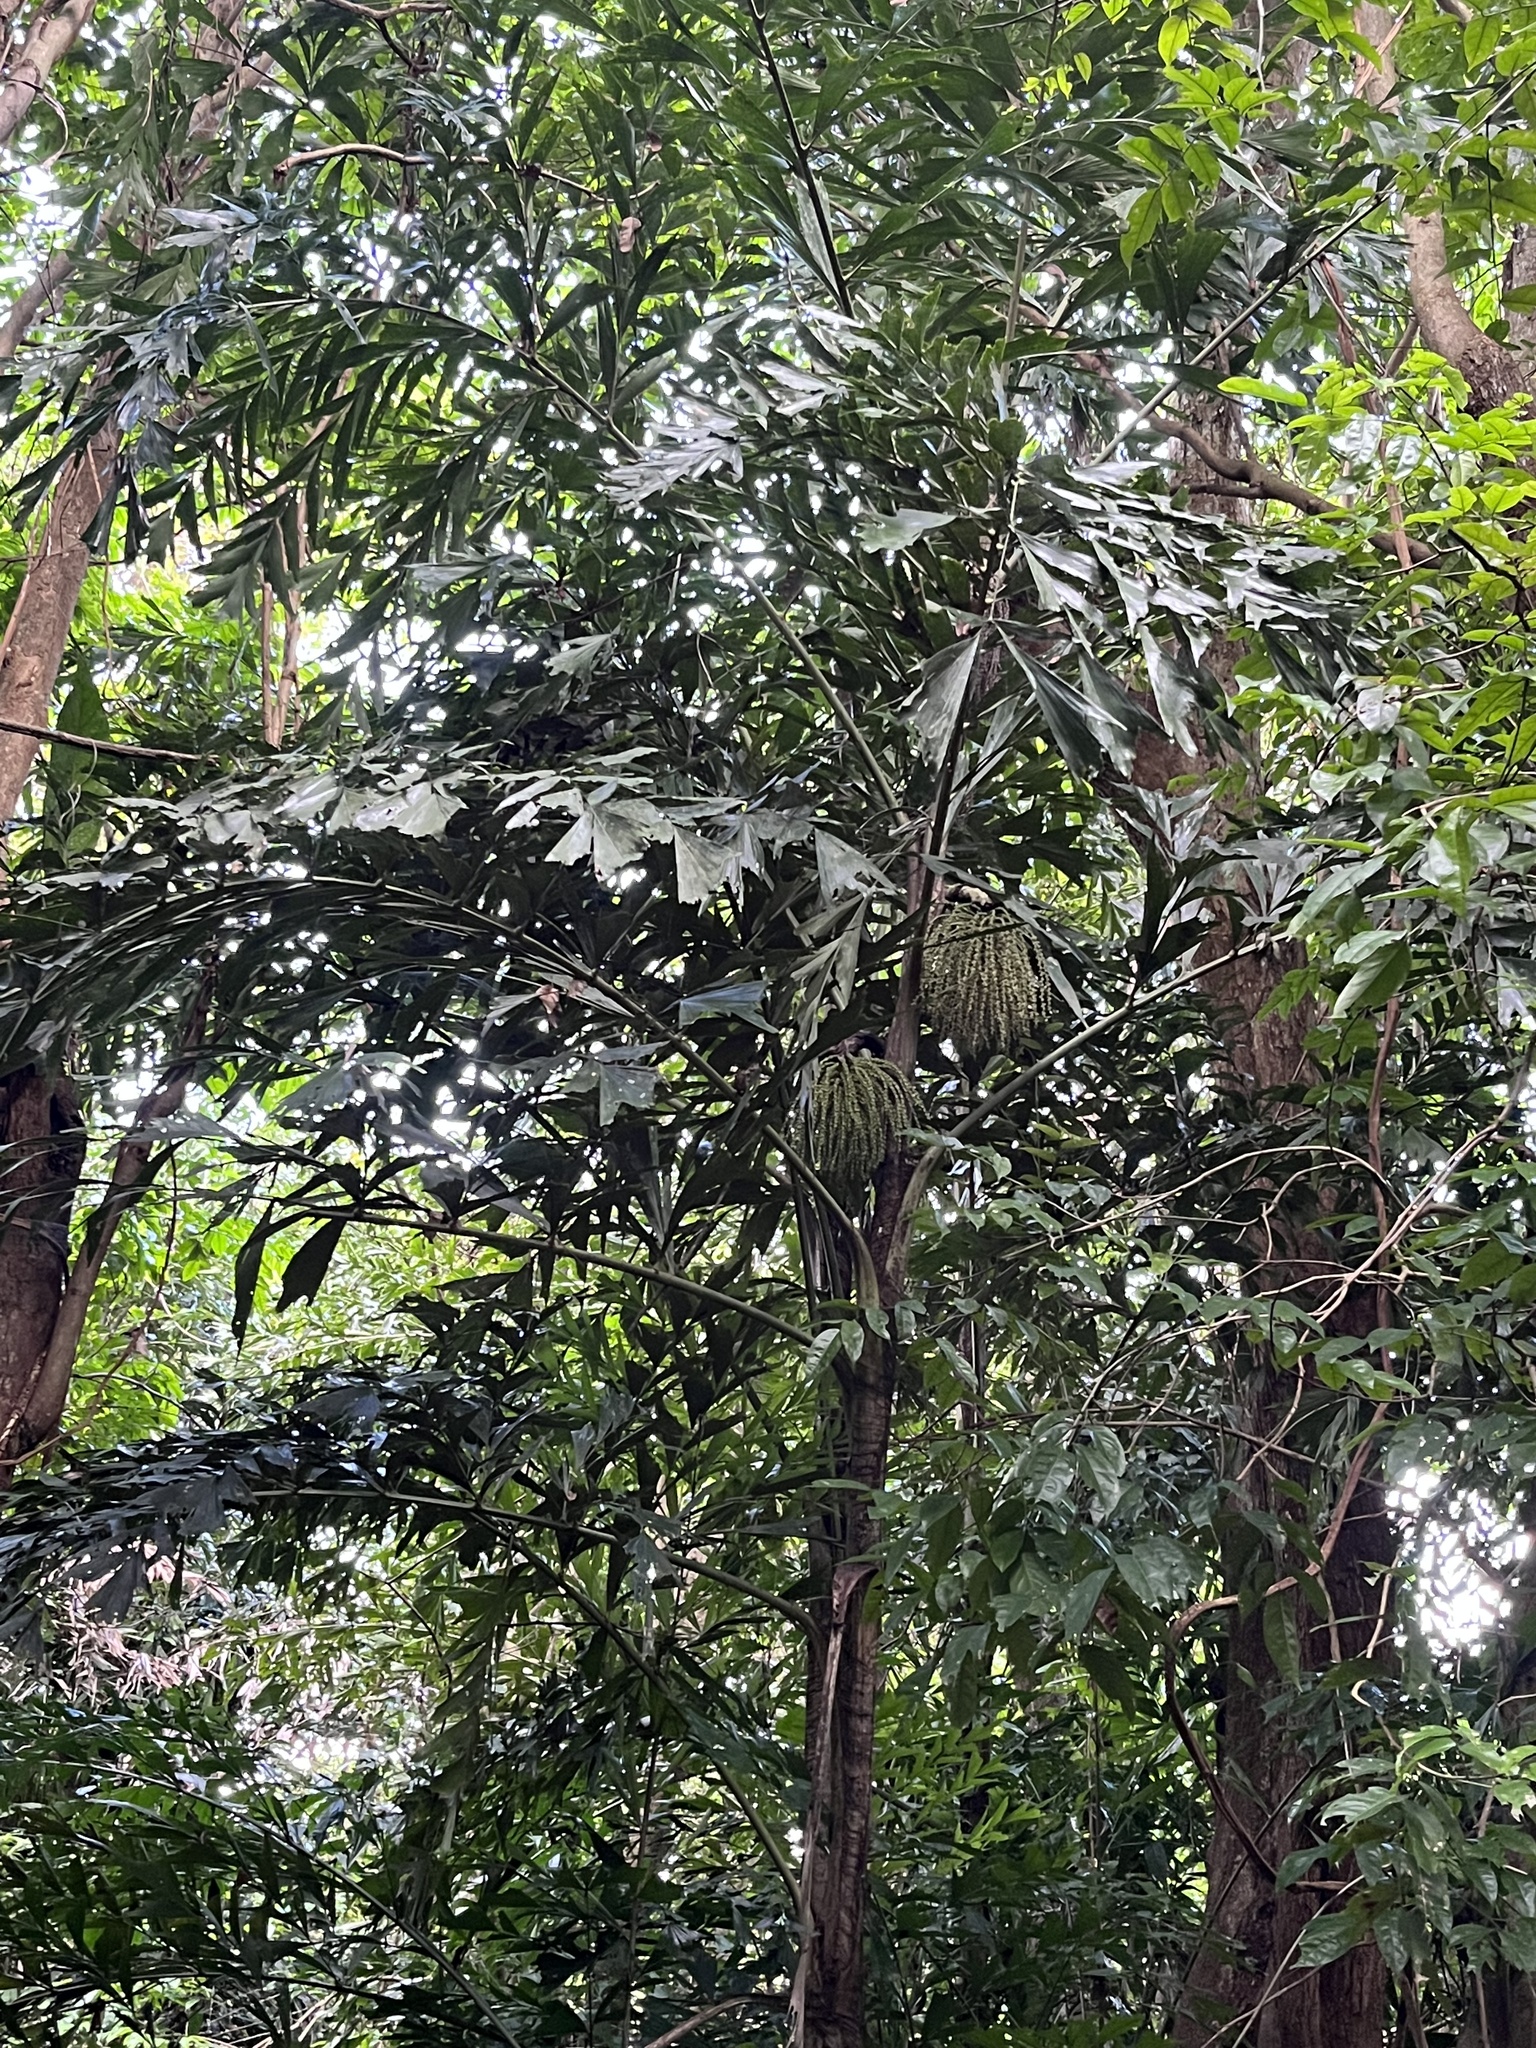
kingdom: Plantae
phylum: Tracheophyta
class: Liliopsida
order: Arecales
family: Arecaceae
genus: Caryota
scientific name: Caryota mitis
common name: Burmese fishtail palm
